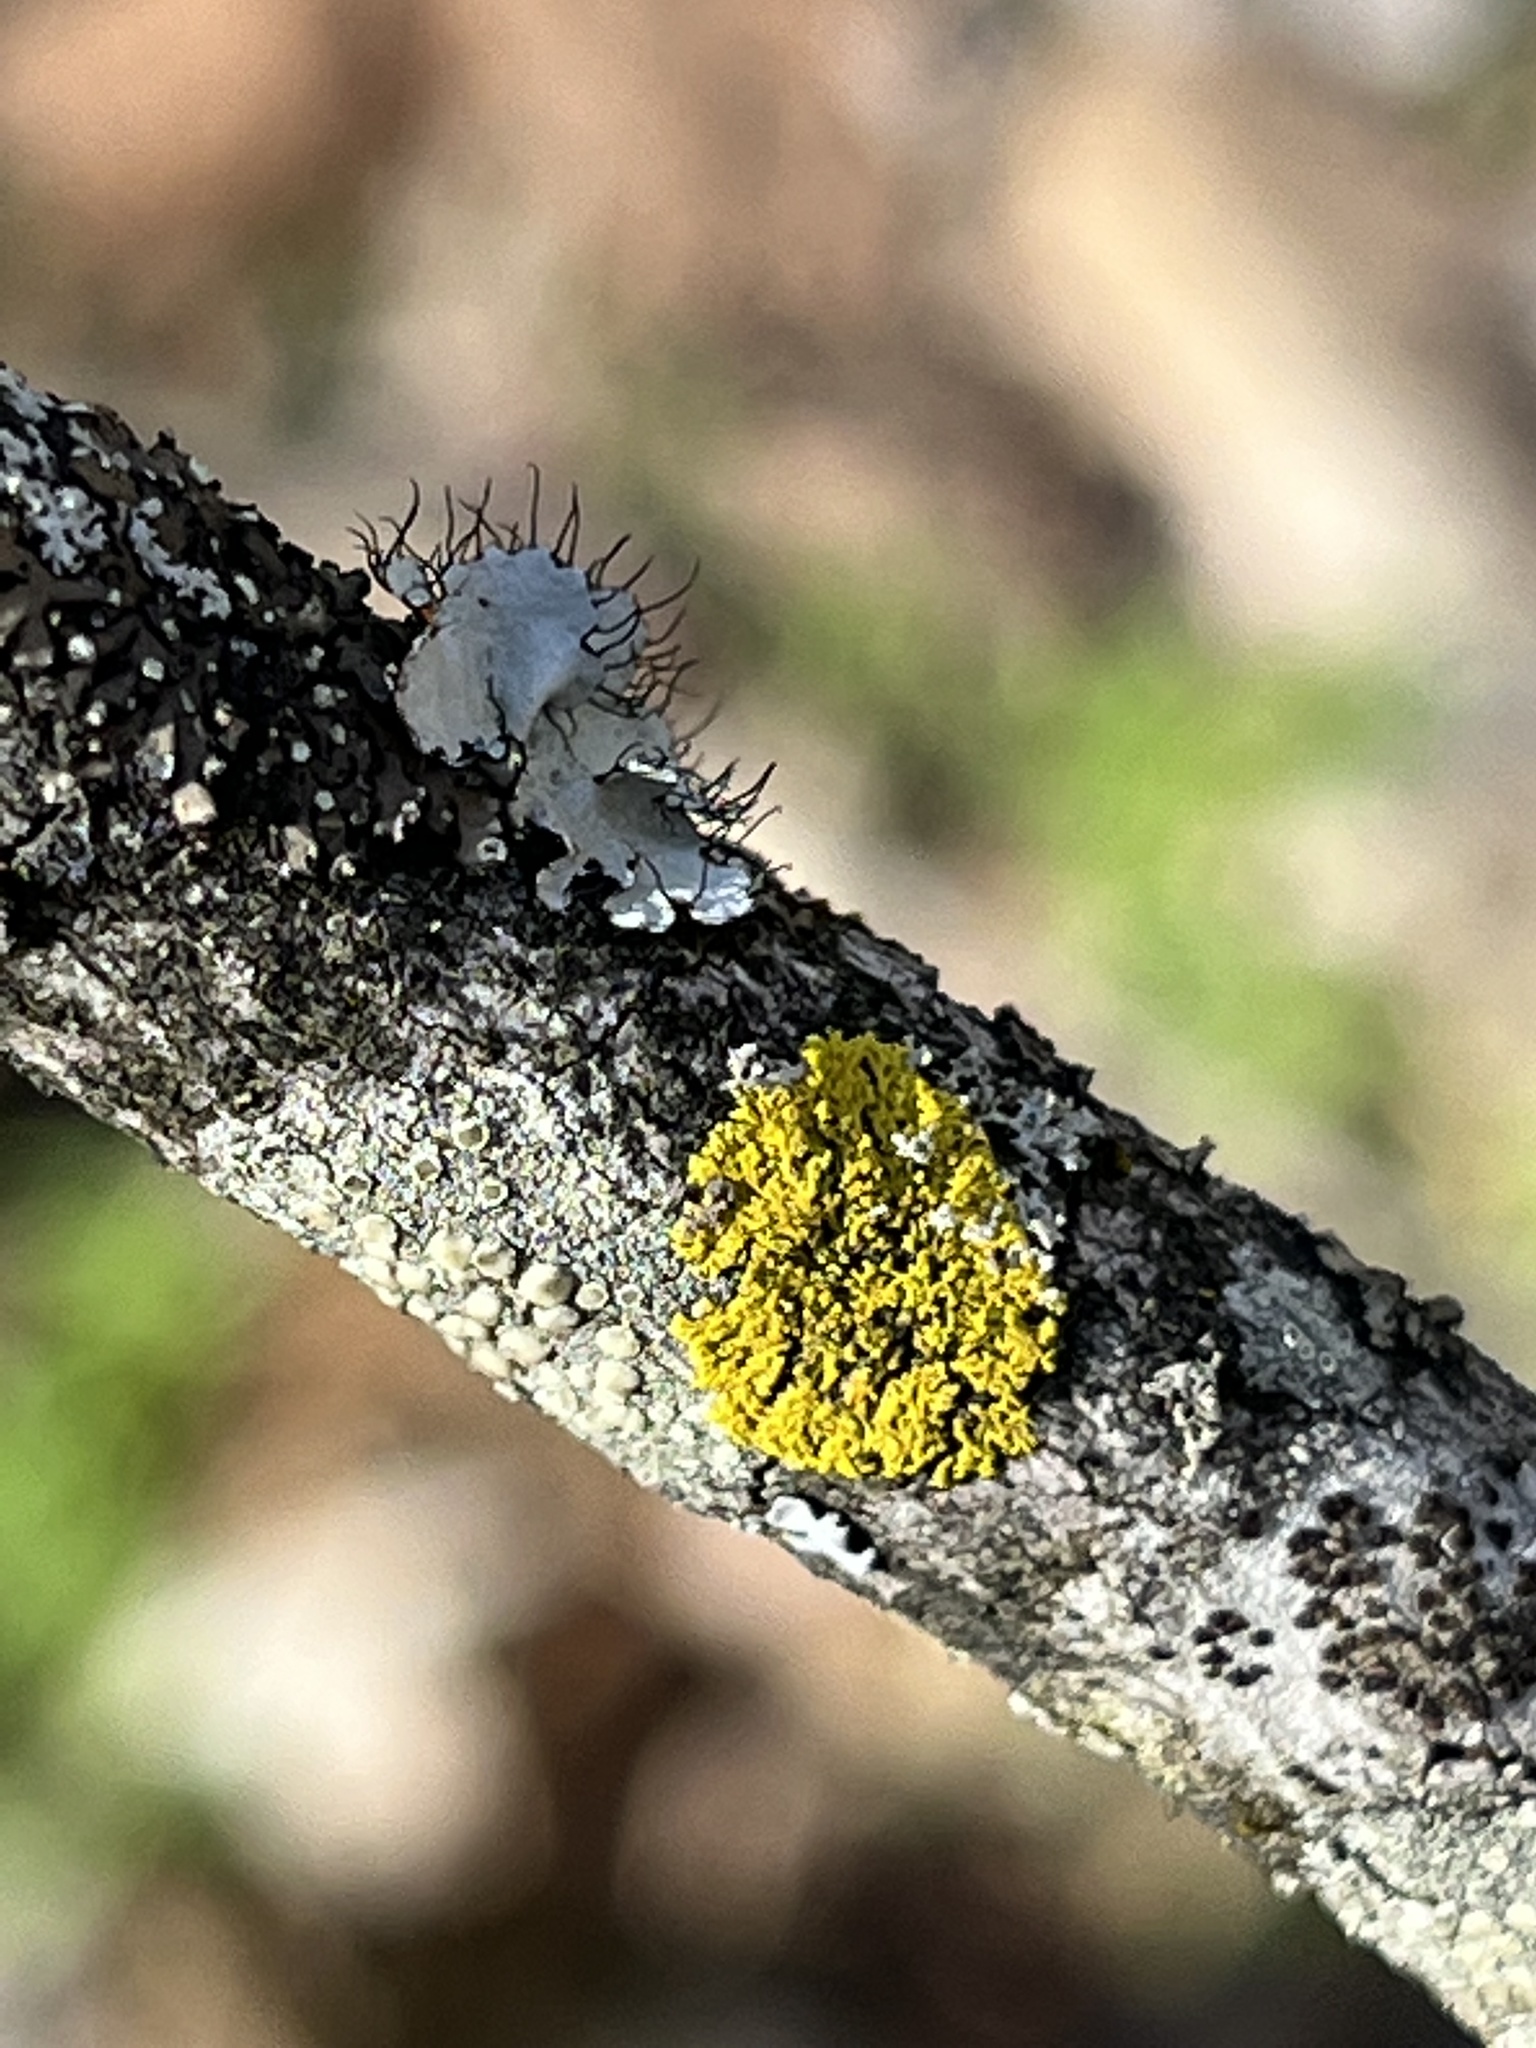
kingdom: Fungi
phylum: Ascomycota
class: Candelariomycetes
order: Candelariales
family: Candelariaceae
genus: Candelaria
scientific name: Candelaria concolor
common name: Candleflame lichen
